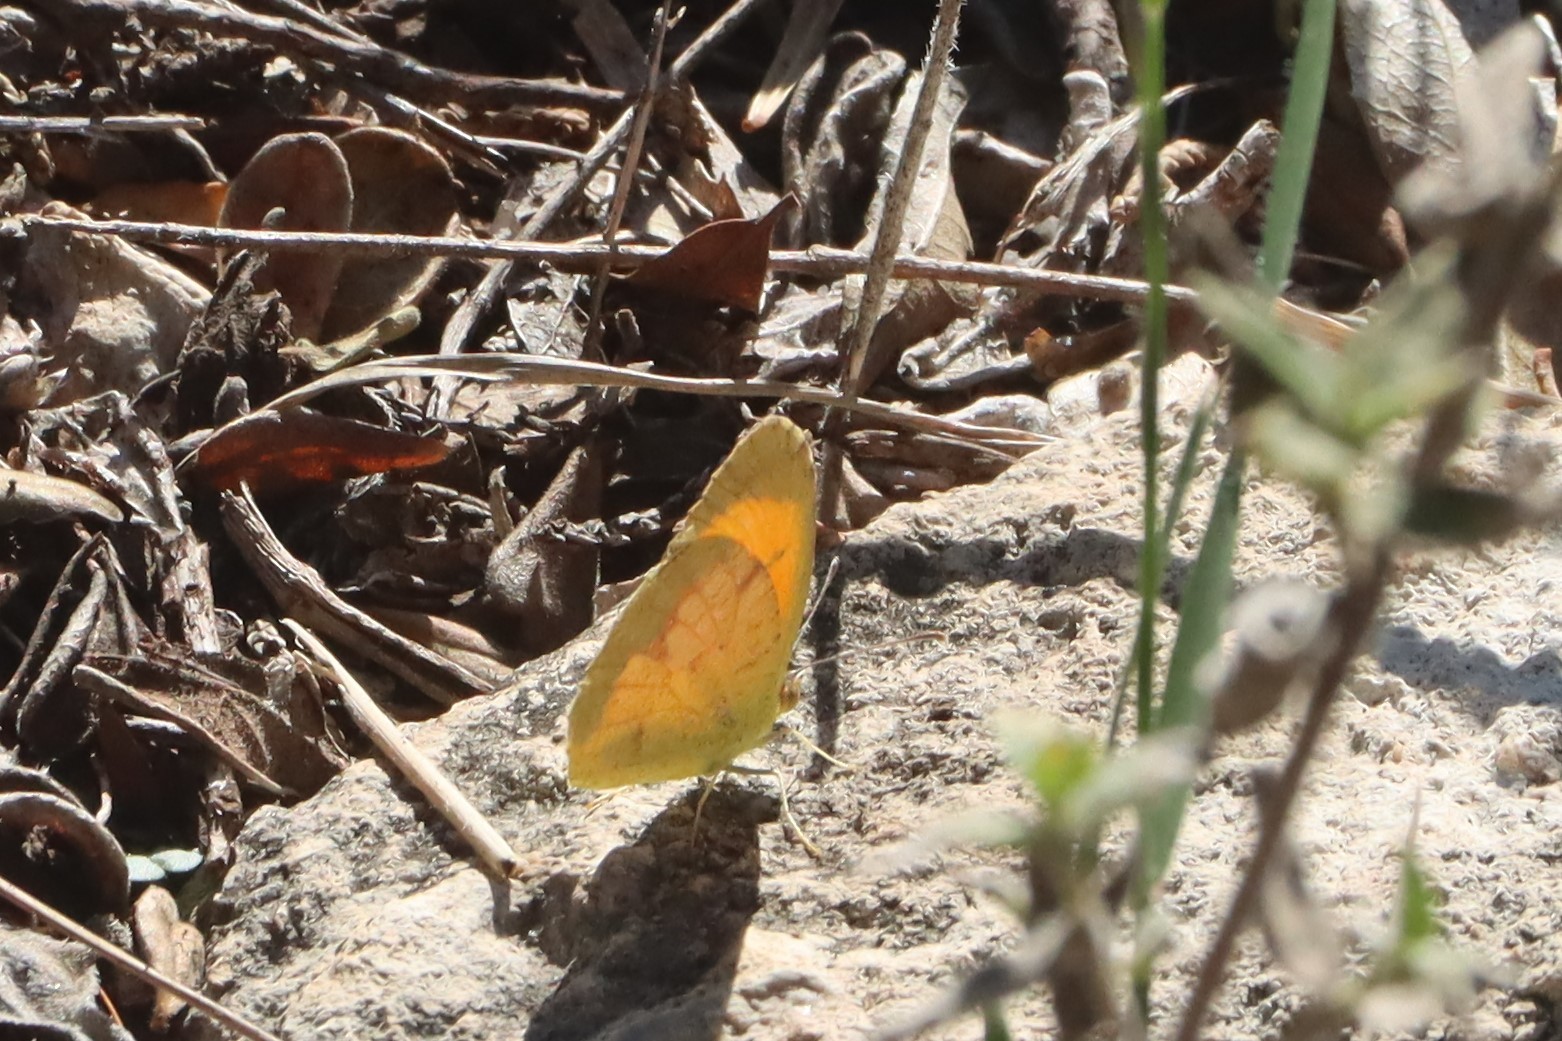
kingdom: Animalia
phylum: Arthropoda
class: Insecta
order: Lepidoptera
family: Pieridae
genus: Abaeis
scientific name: Abaeis nicippe
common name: Sleepy orange
